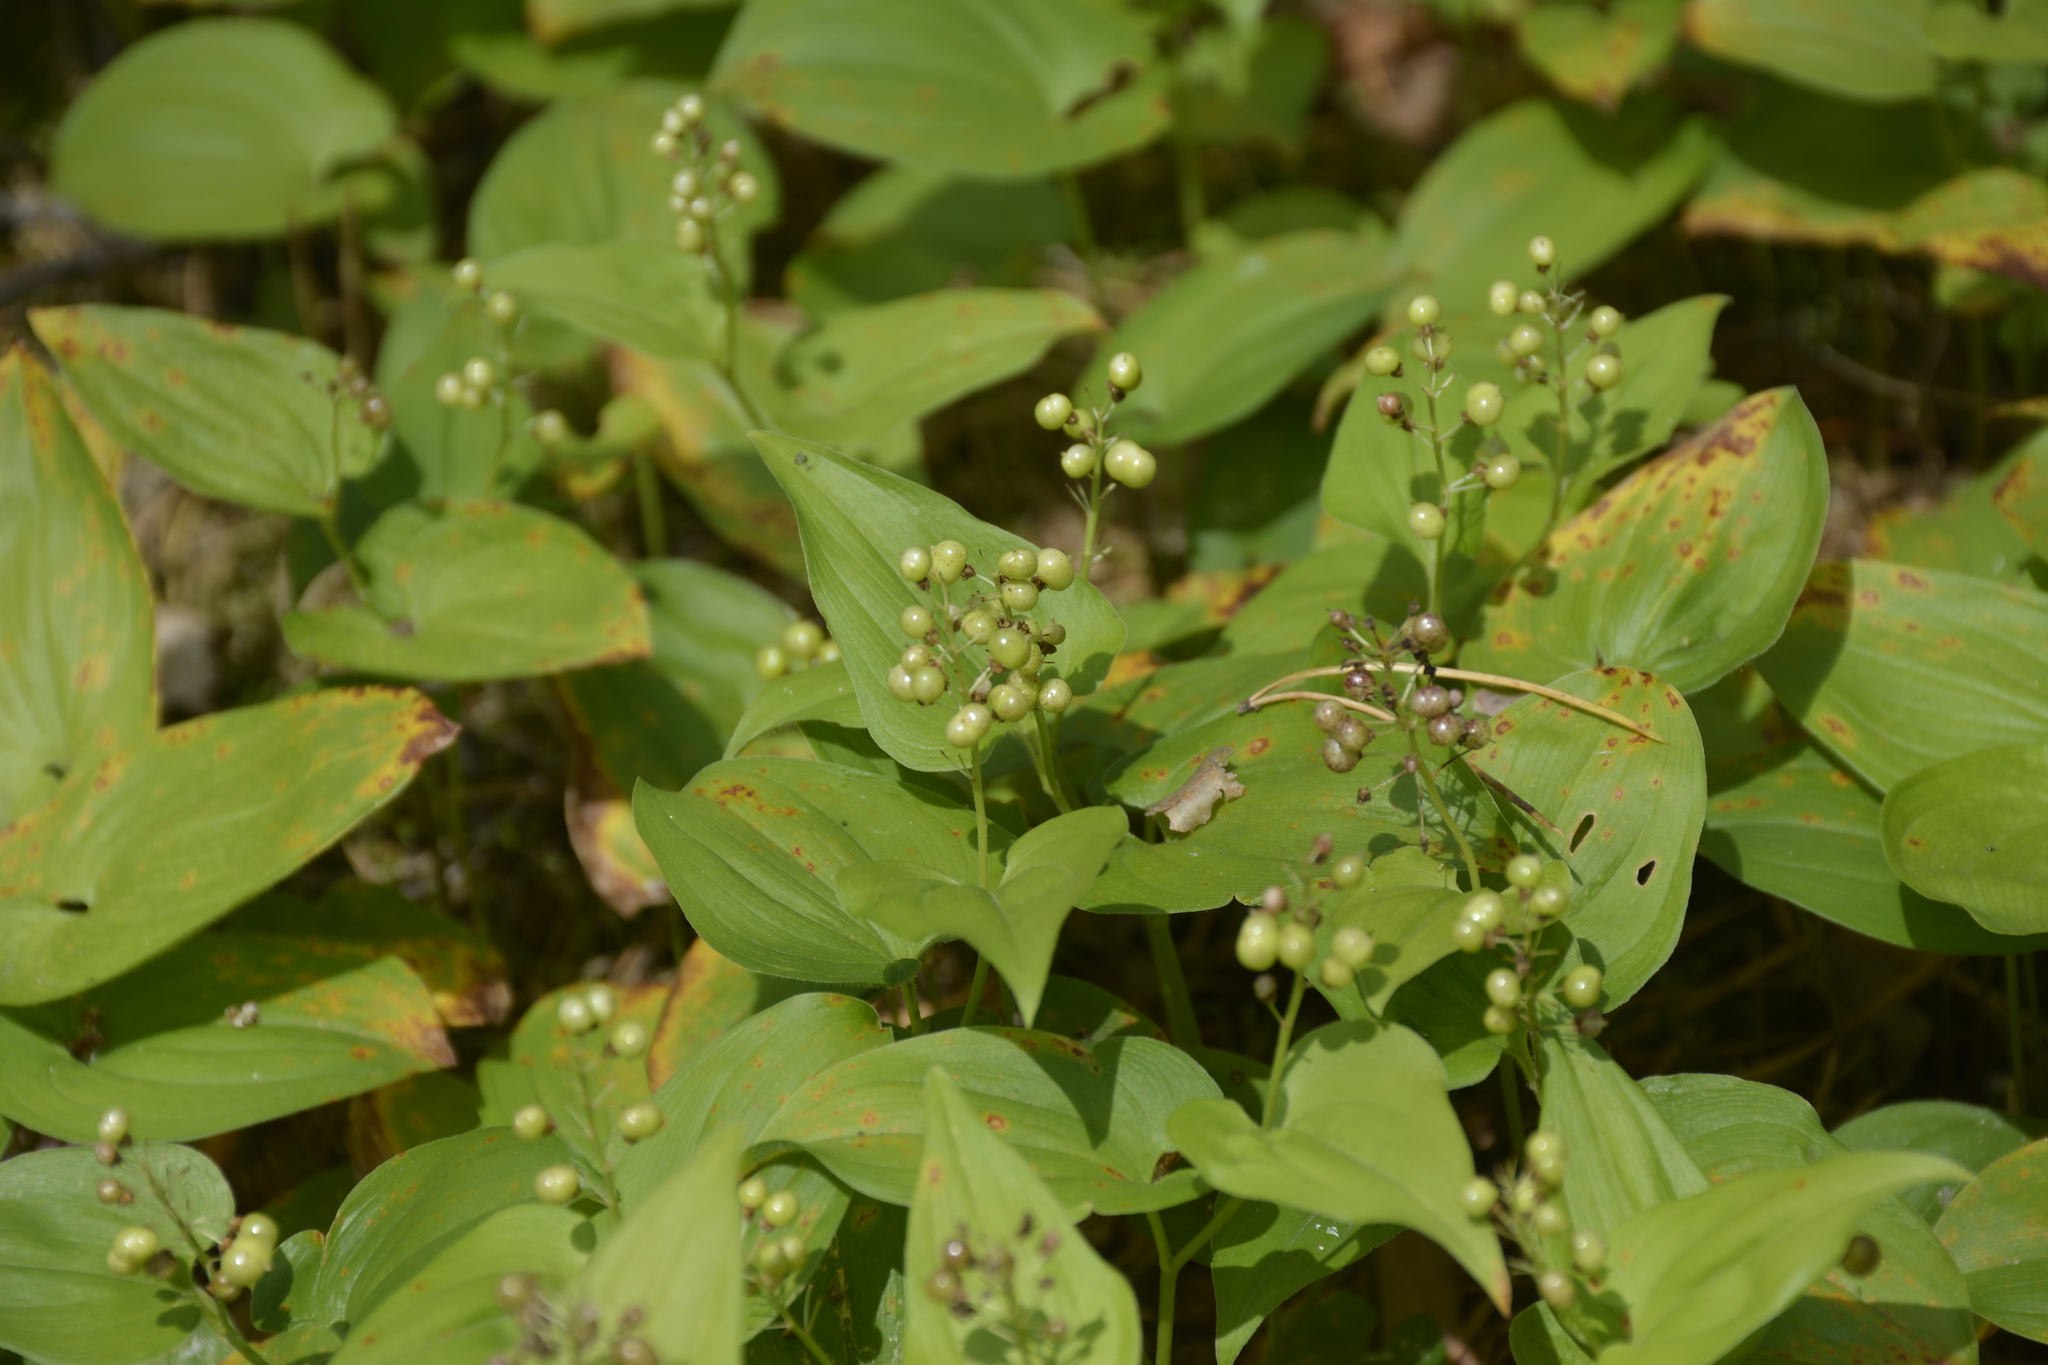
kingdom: Plantae
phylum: Tracheophyta
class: Liliopsida
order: Asparagales
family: Asparagaceae
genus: Maianthemum
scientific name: Maianthemum bifolium
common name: May lily
